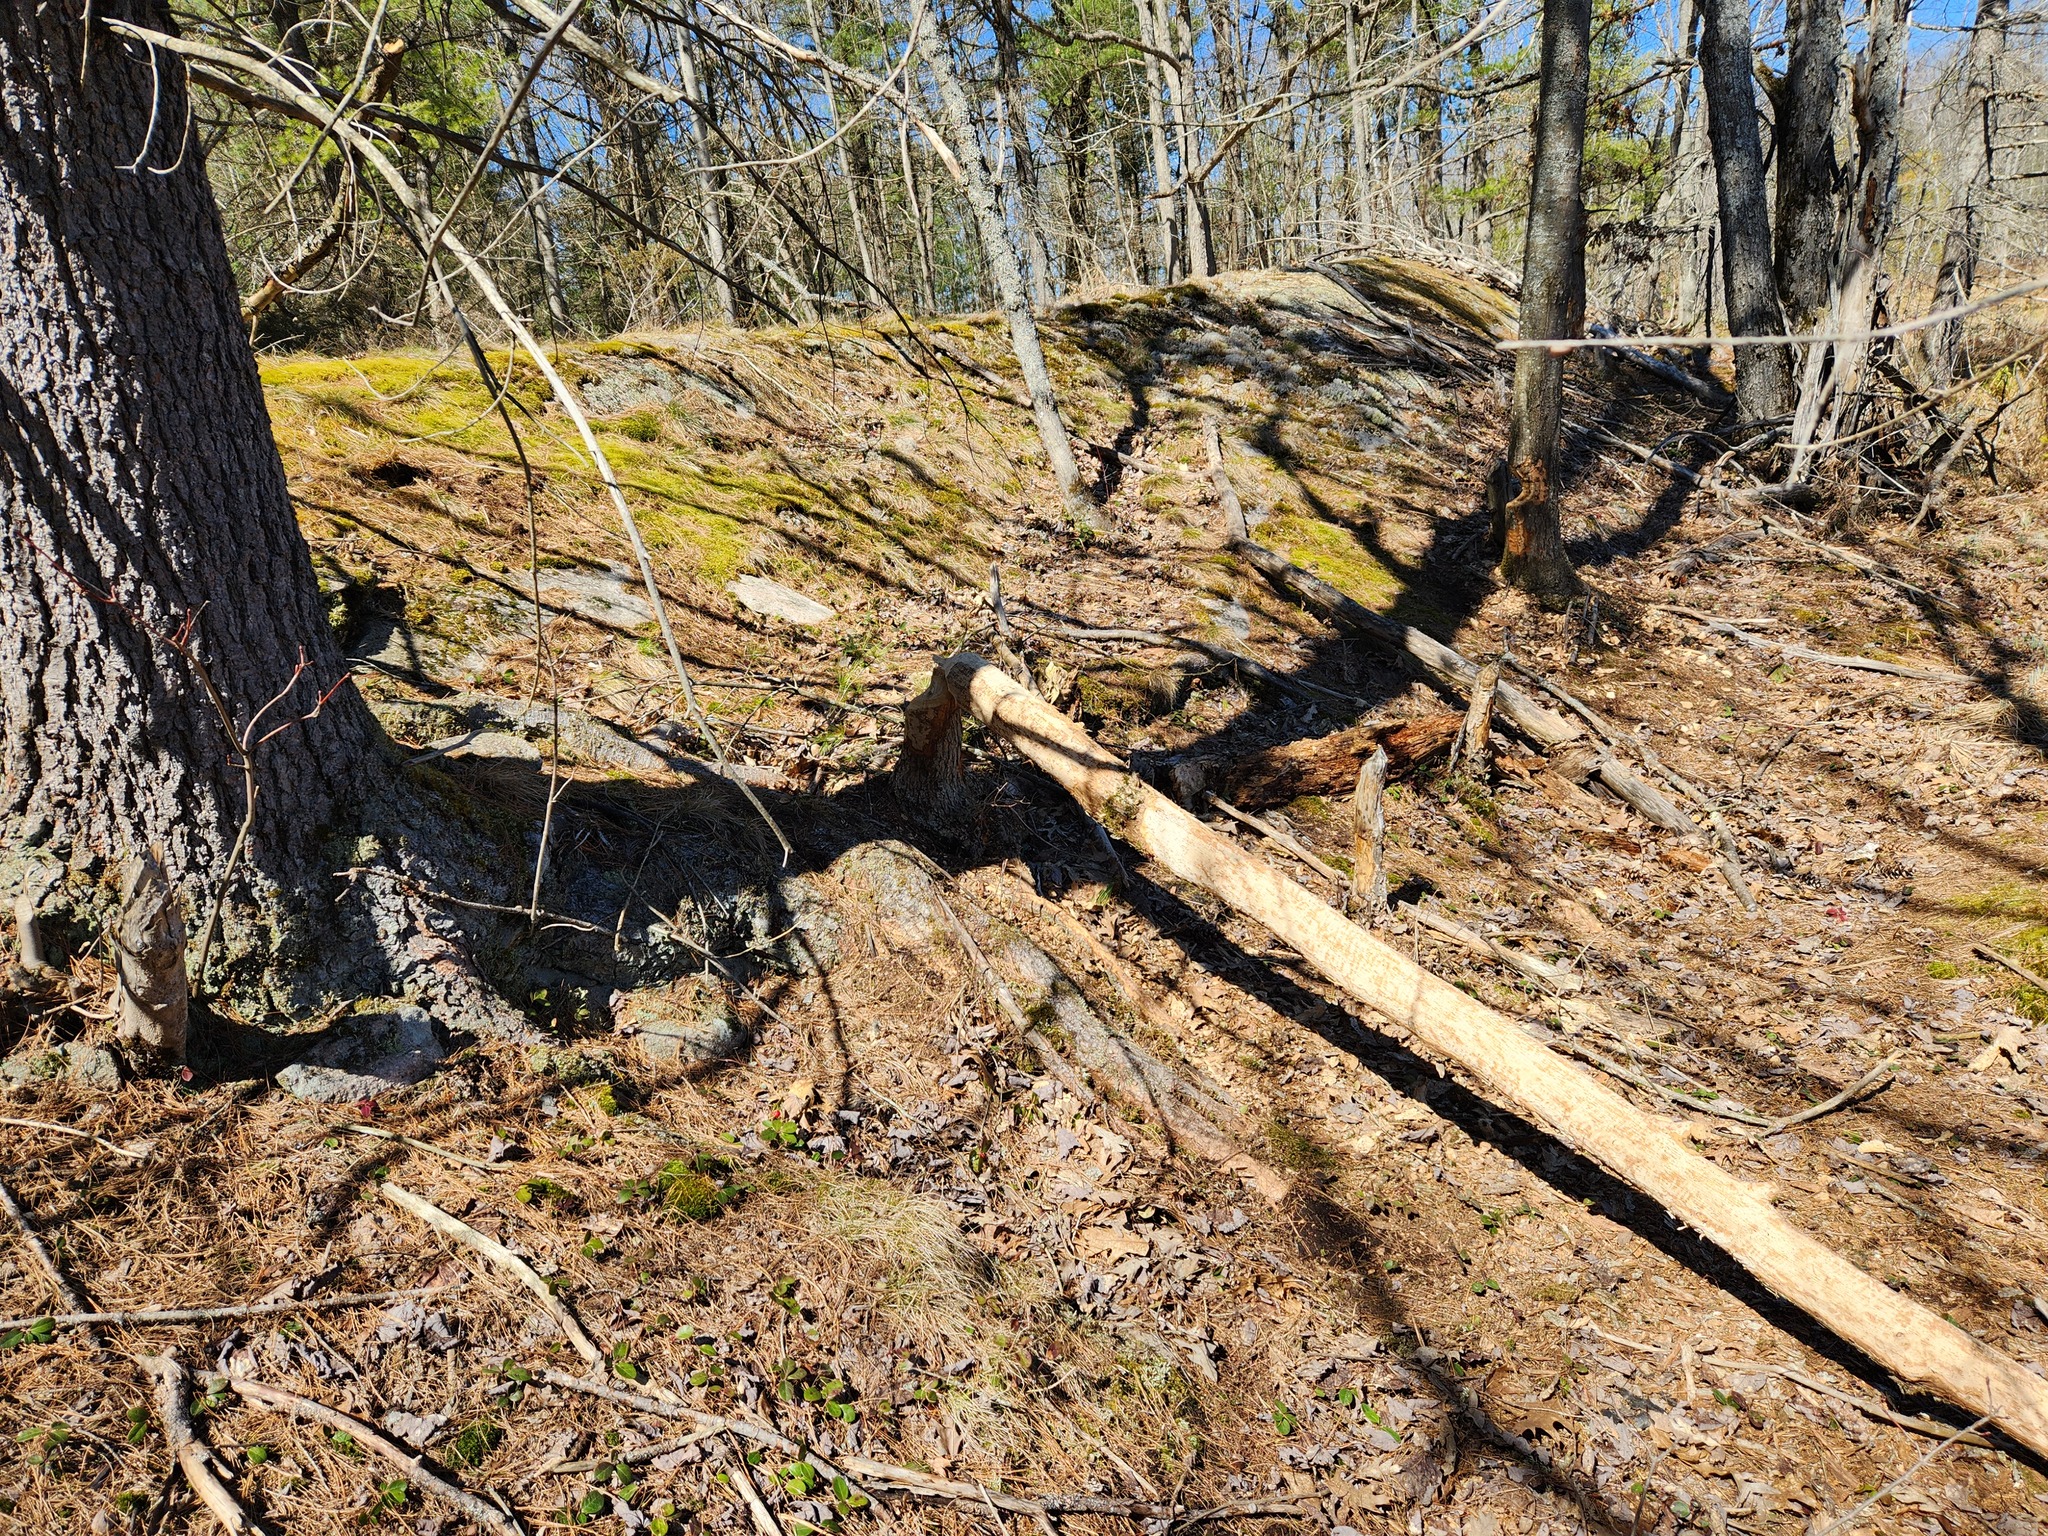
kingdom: Animalia
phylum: Chordata
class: Mammalia
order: Rodentia
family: Castoridae
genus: Castor
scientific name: Castor canadensis
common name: American beaver
